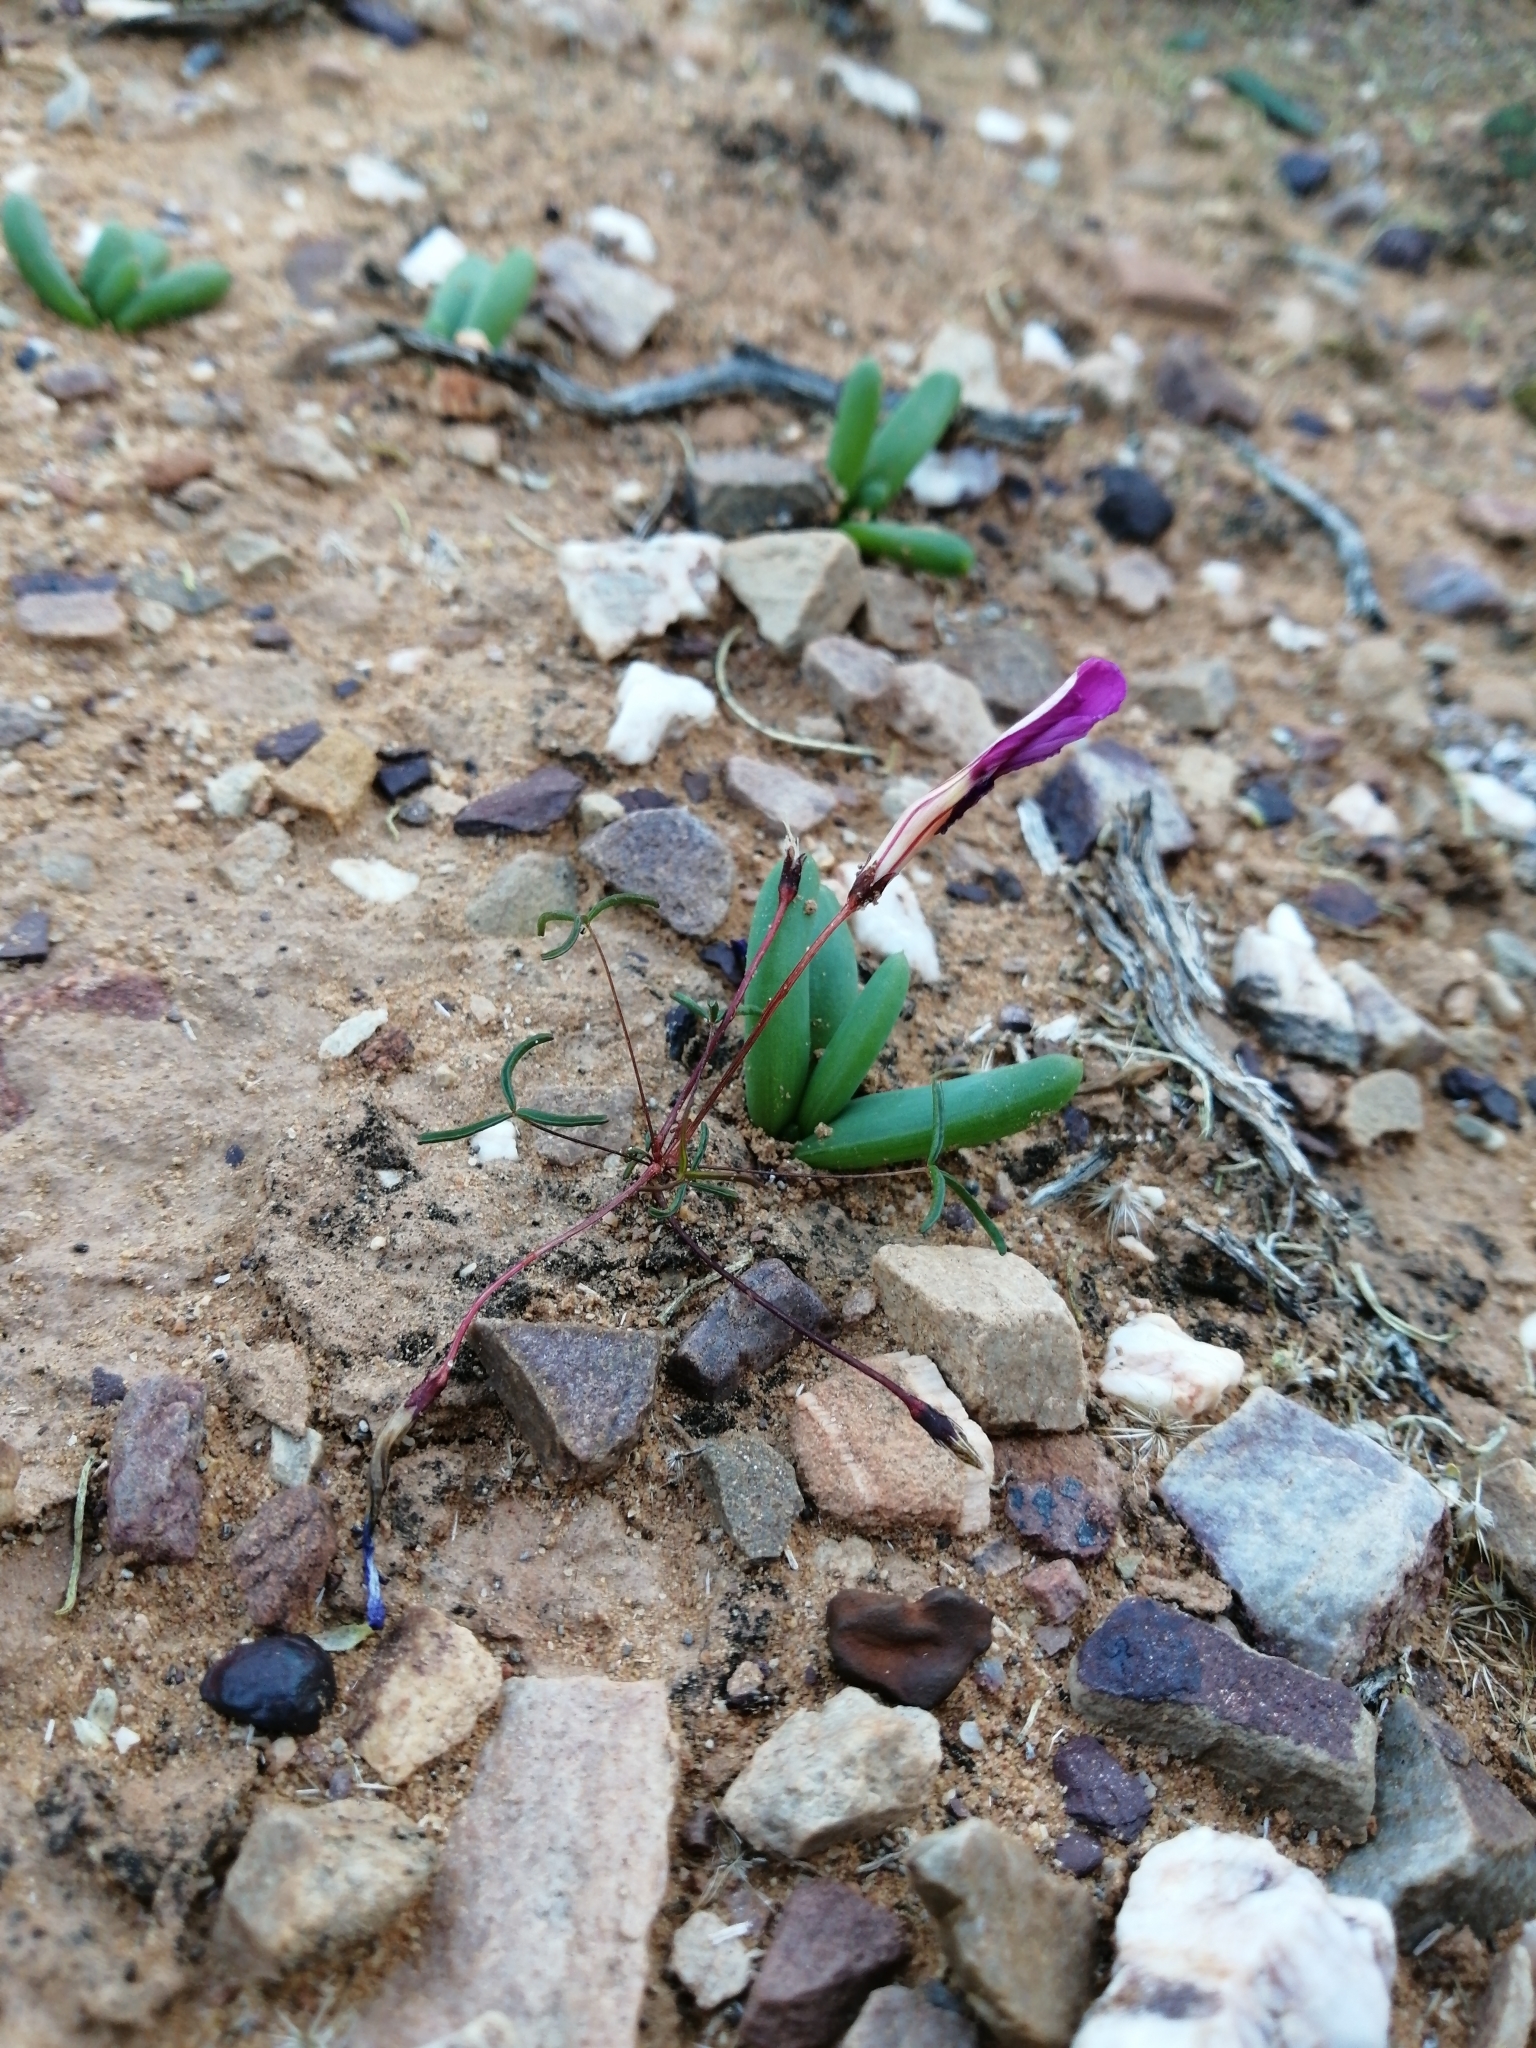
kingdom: Plantae
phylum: Tracheophyta
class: Magnoliopsida
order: Oxalidales
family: Oxalidaceae
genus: Oxalis
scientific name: Oxalis leptogramma
